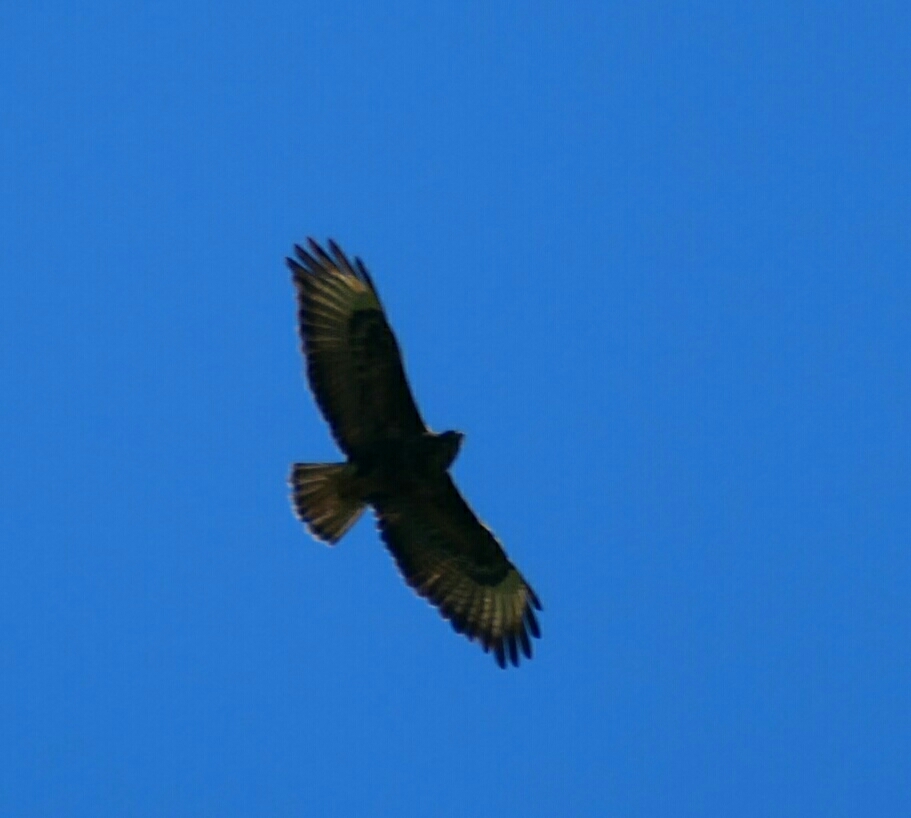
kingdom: Animalia
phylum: Chordata
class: Aves
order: Accipitriformes
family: Accipitridae
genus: Buteo
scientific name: Buteo buteo
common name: Common buzzard
